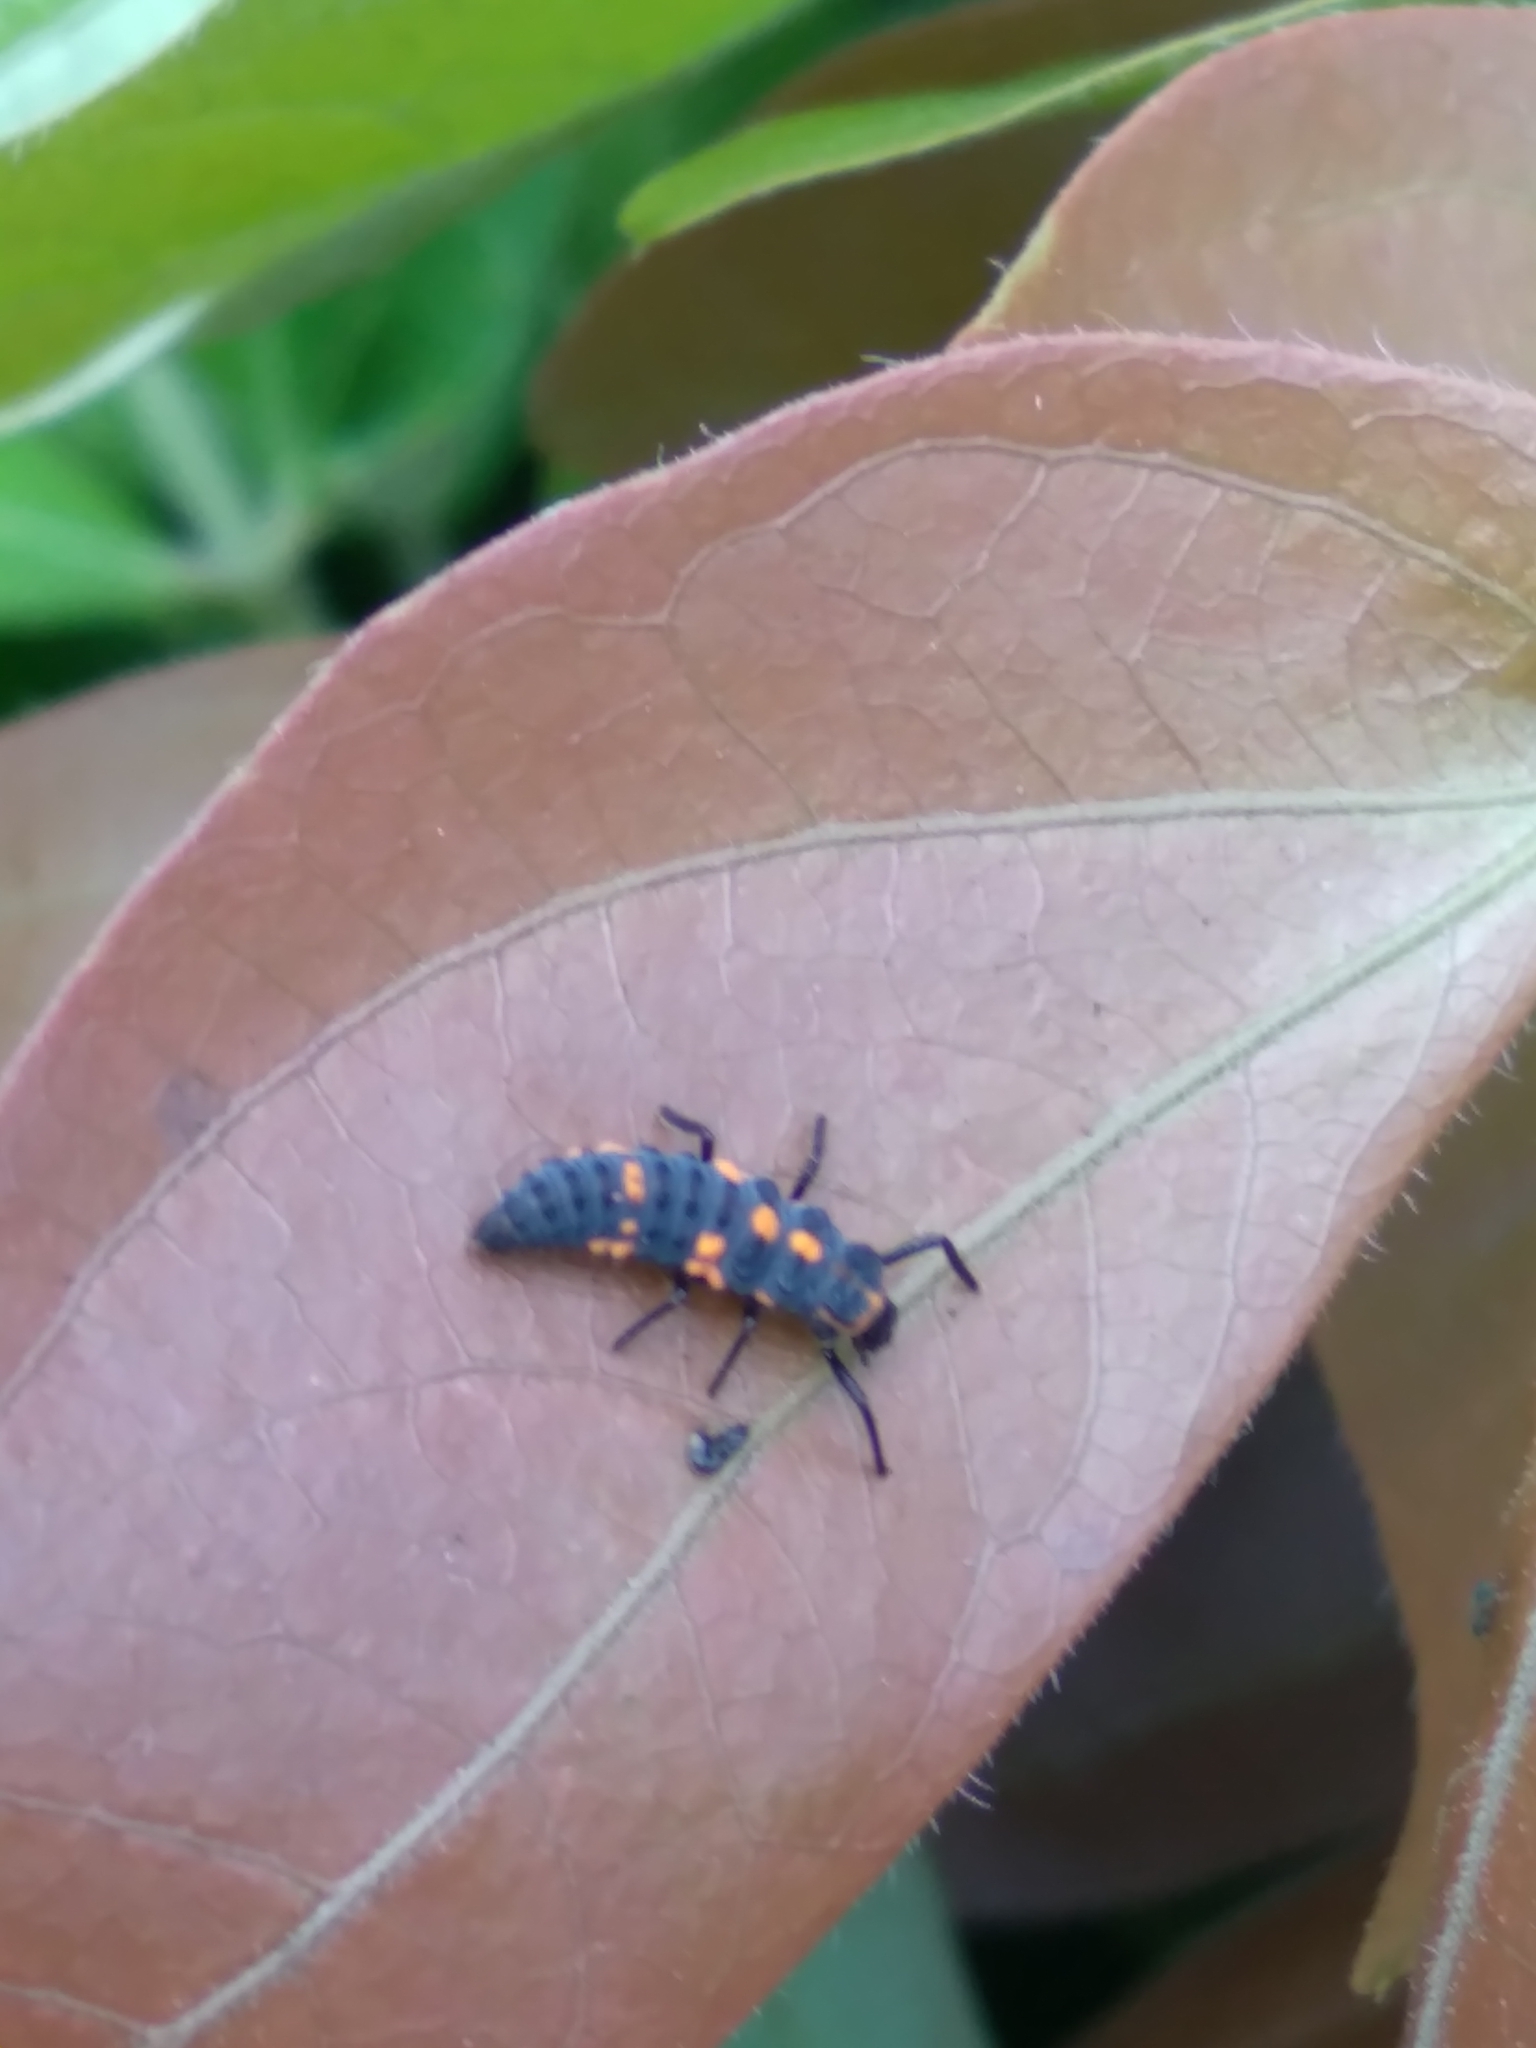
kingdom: Animalia
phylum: Arthropoda
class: Insecta
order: Coleoptera
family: Coccinellidae
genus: Cycloneda
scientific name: Cycloneda sanguinea
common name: Ladybird beetle
